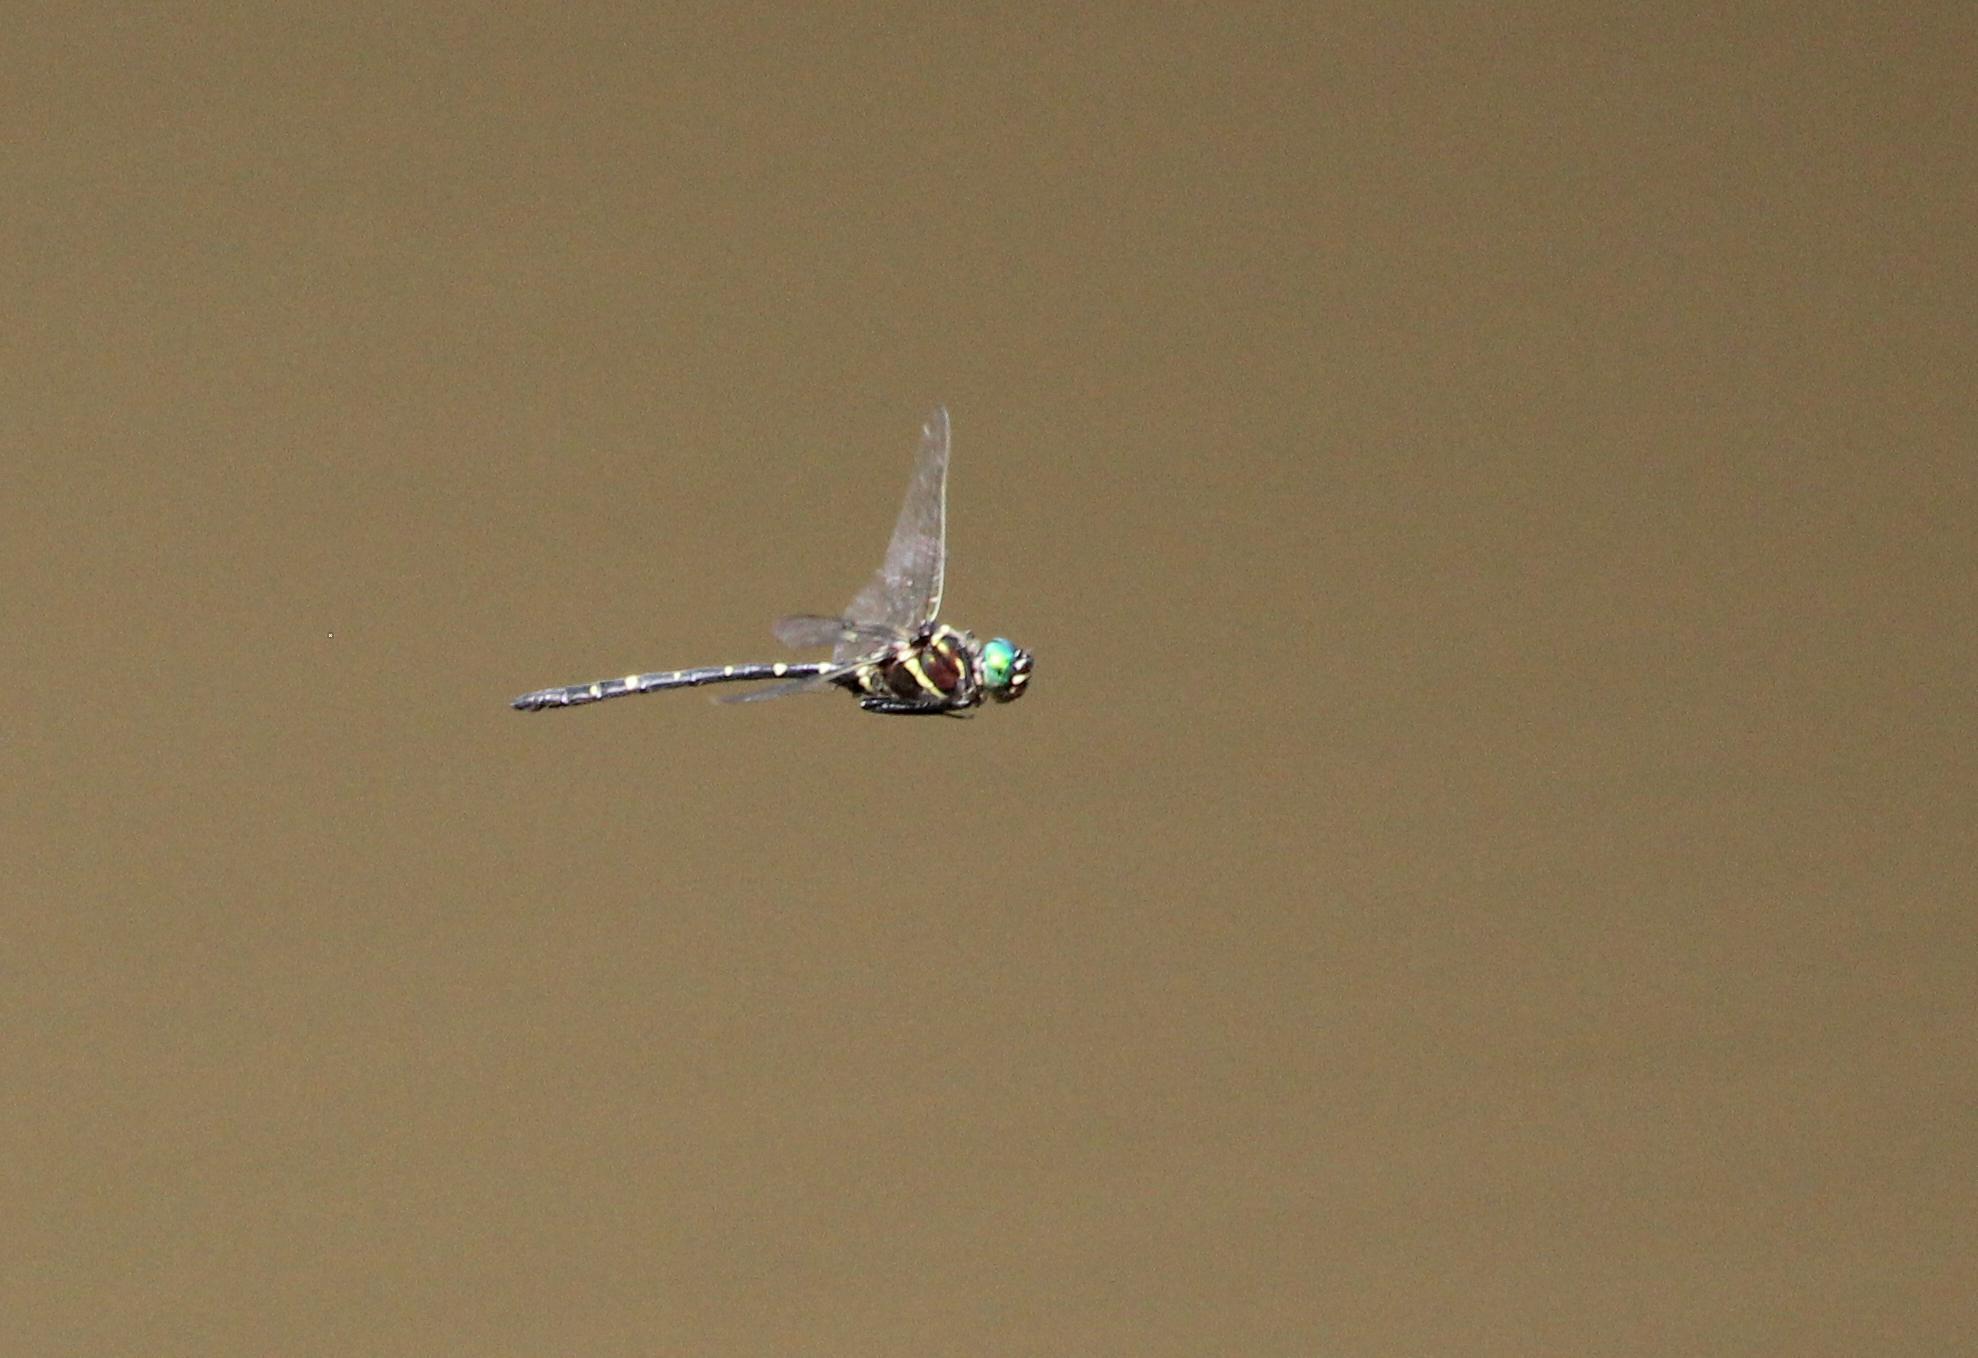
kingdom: Animalia
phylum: Arthropoda
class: Insecta
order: Odonata
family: Macromiidae
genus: Macromia
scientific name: Macromia taeniolata
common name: Royal river cruiser
